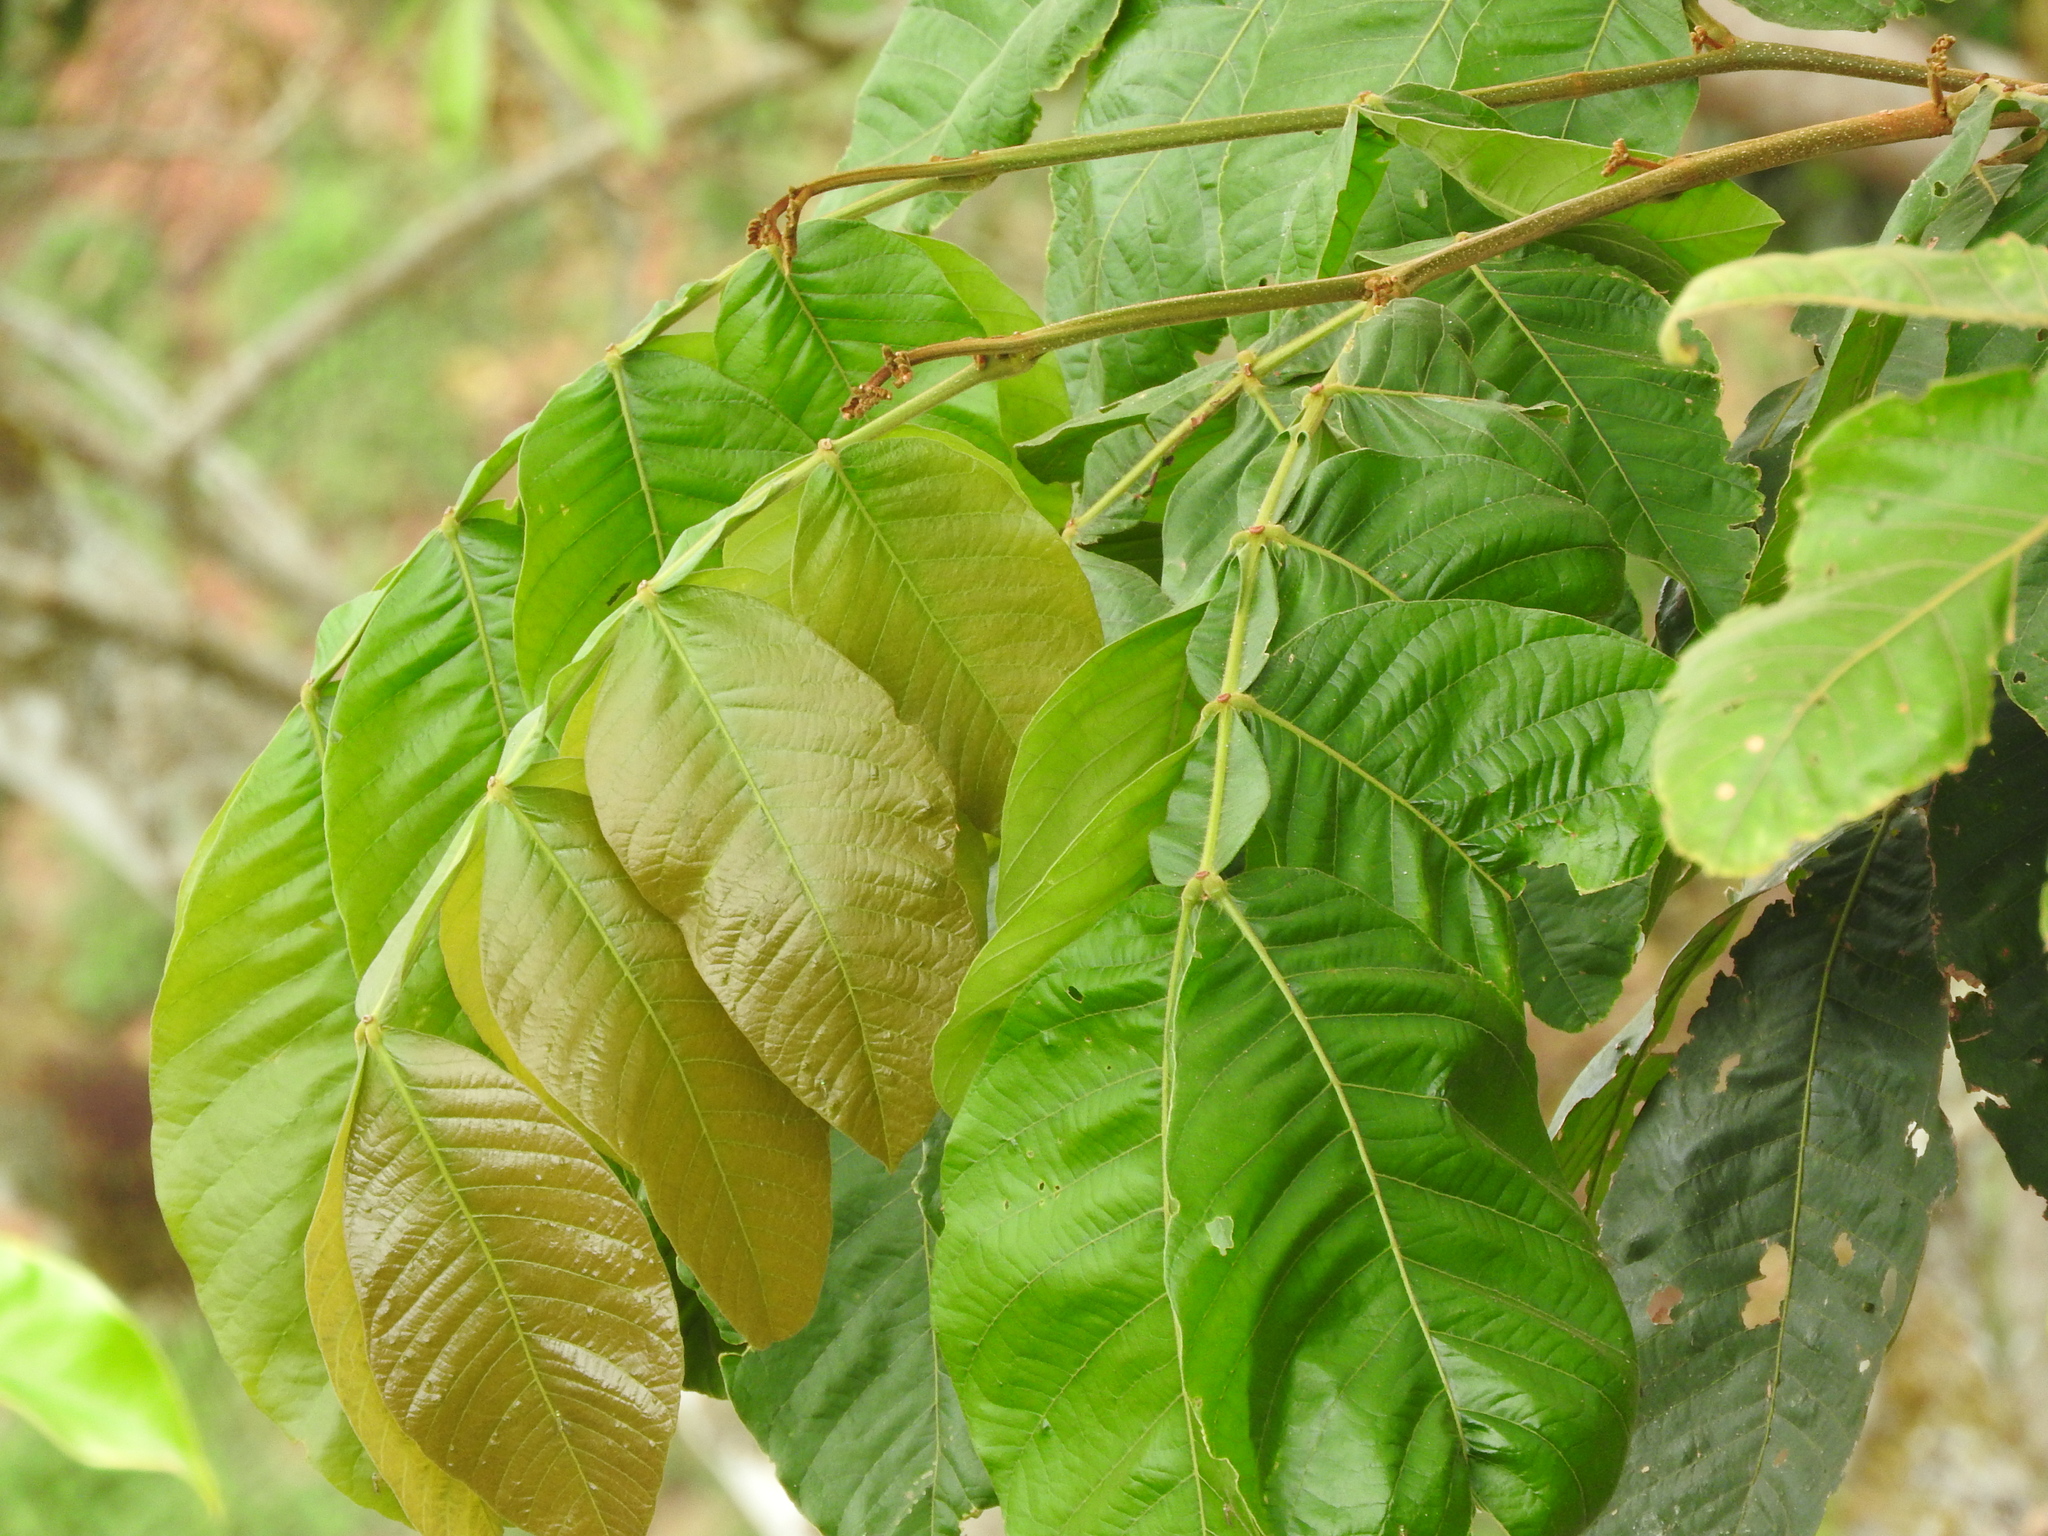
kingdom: Plantae
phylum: Tracheophyta
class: Magnoliopsida
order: Fabales
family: Fabaceae
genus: Inga
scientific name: Inga vera
